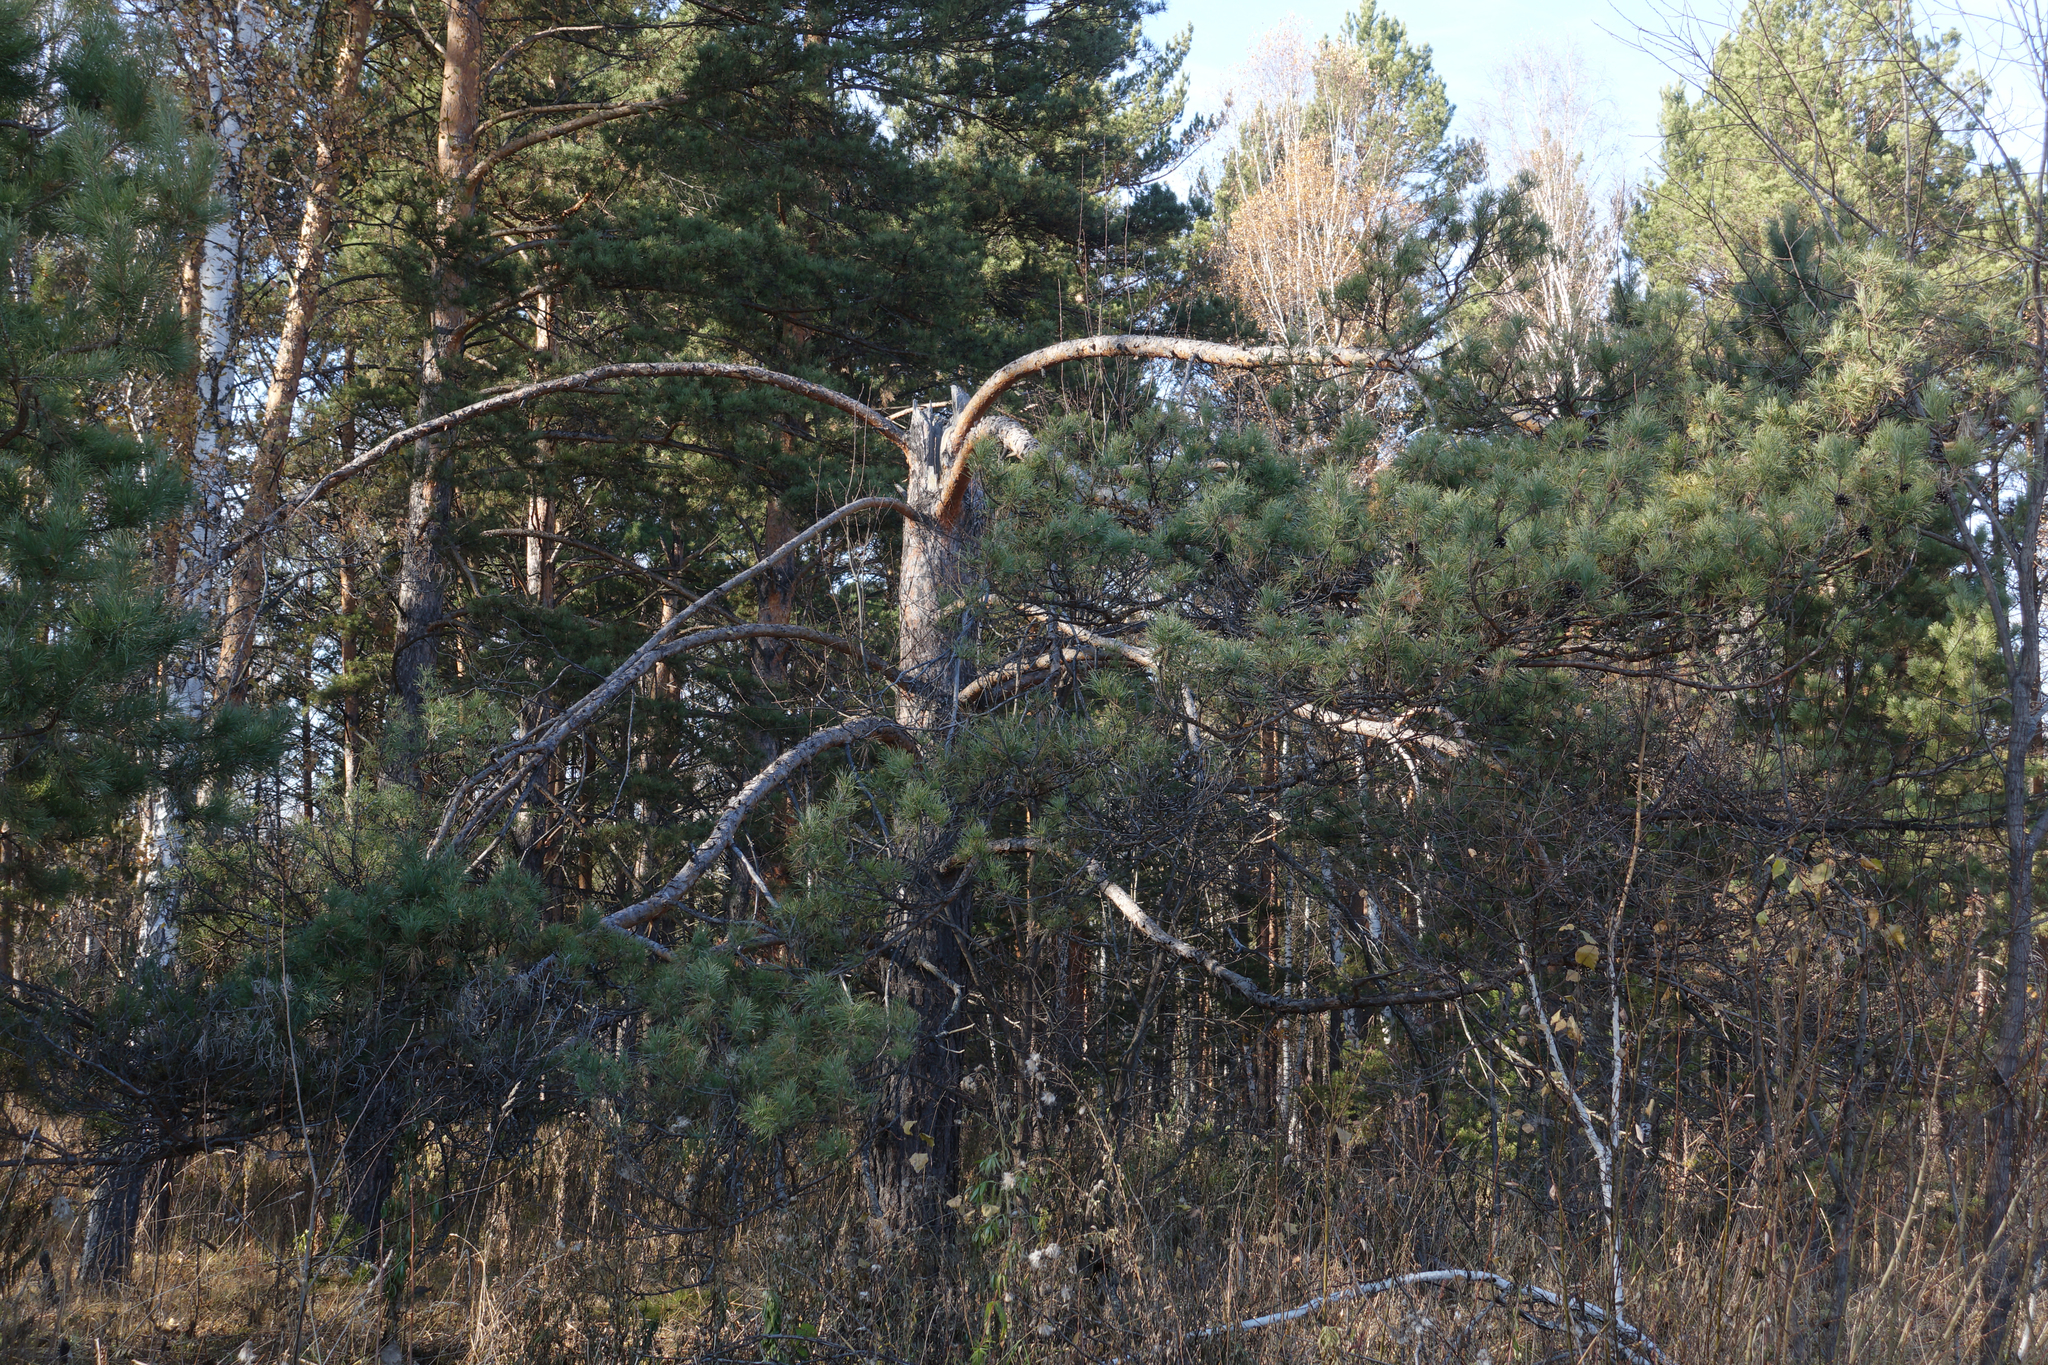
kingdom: Plantae
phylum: Tracheophyta
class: Pinopsida
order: Pinales
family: Pinaceae
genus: Pinus
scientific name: Pinus sylvestris
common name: Scots pine
